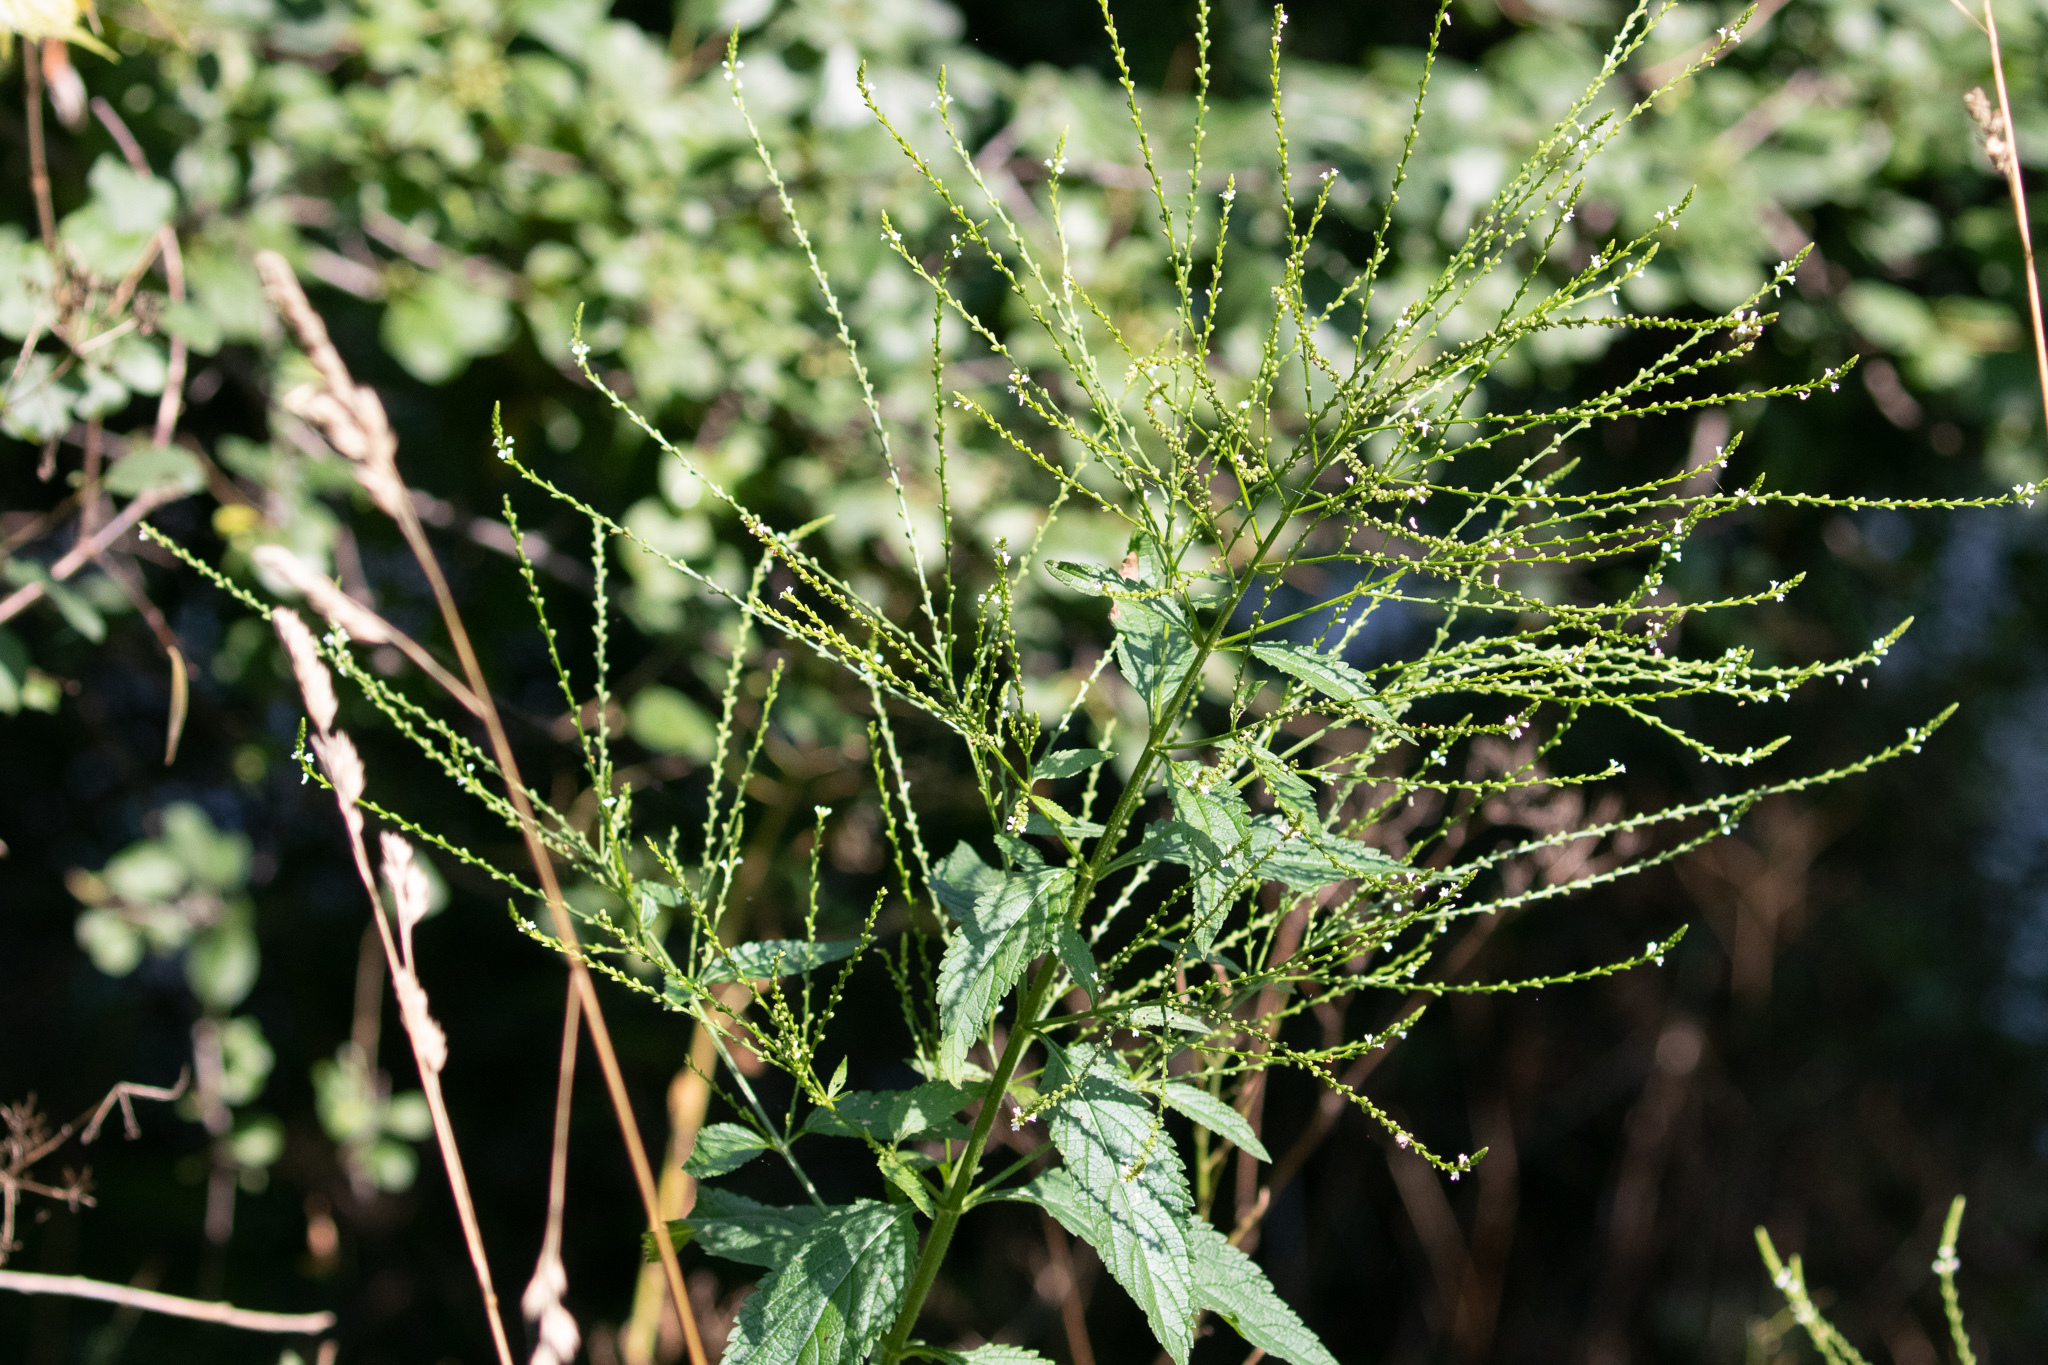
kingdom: Plantae
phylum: Tracheophyta
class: Magnoliopsida
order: Lamiales
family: Verbenaceae
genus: Verbena
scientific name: Verbena urticifolia
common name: Nettle-leaved vervain
